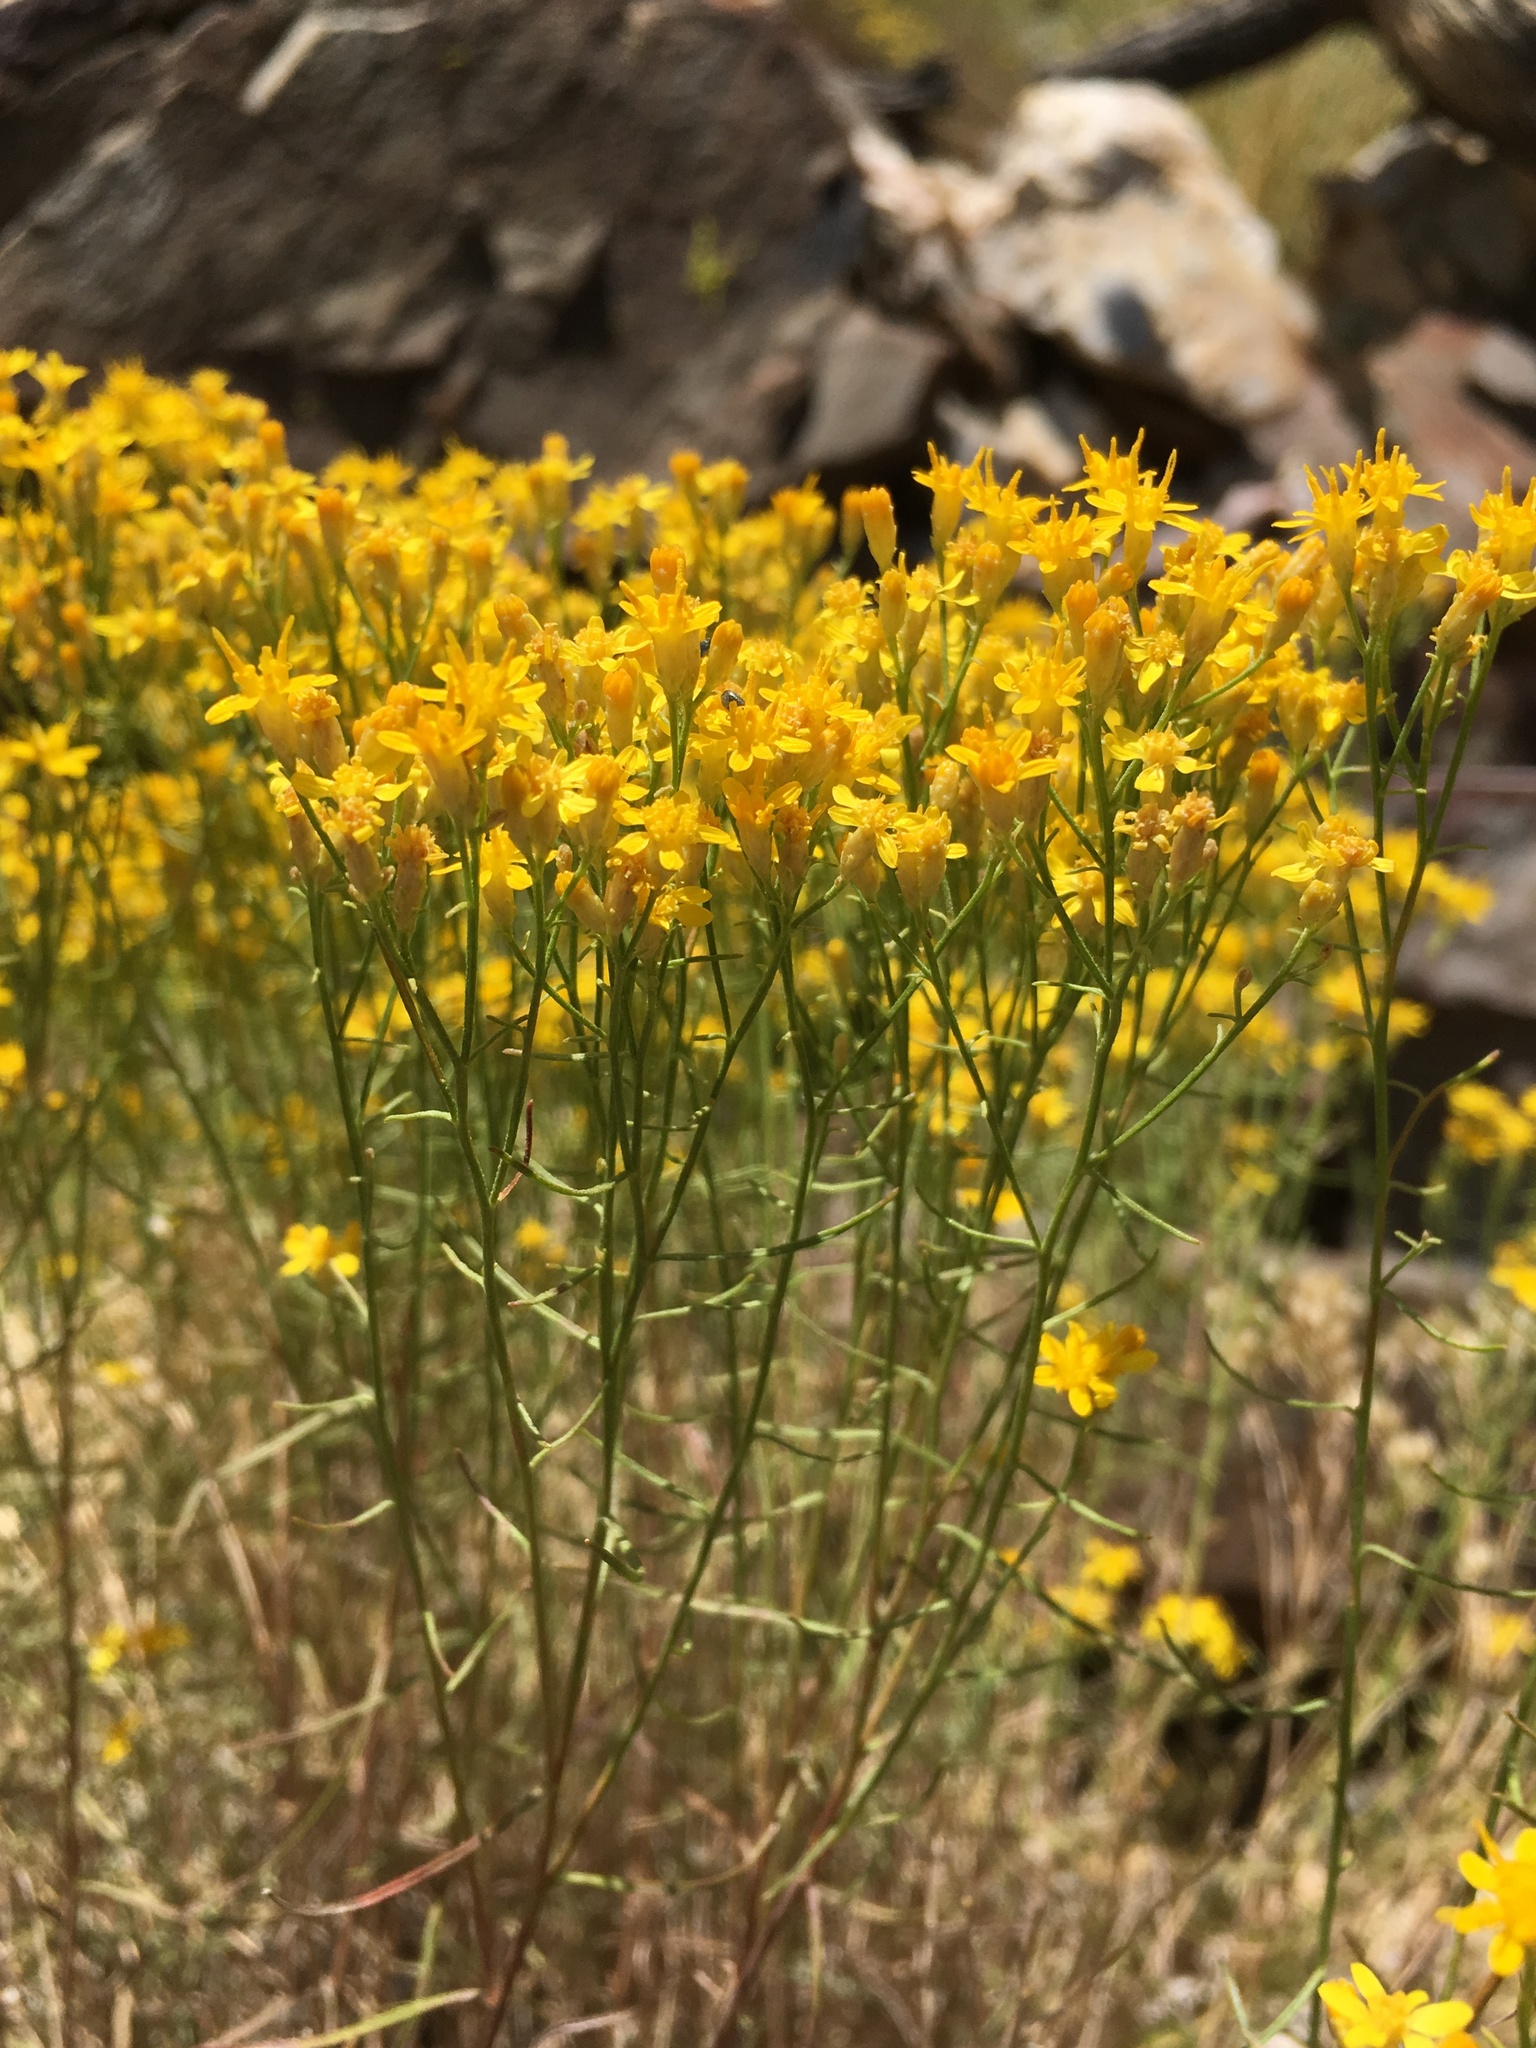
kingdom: Plantae
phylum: Tracheophyta
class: Magnoliopsida
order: Asterales
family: Asteraceae
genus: Gutierrezia
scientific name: Gutierrezia sarothrae
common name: Broom snakeweed
